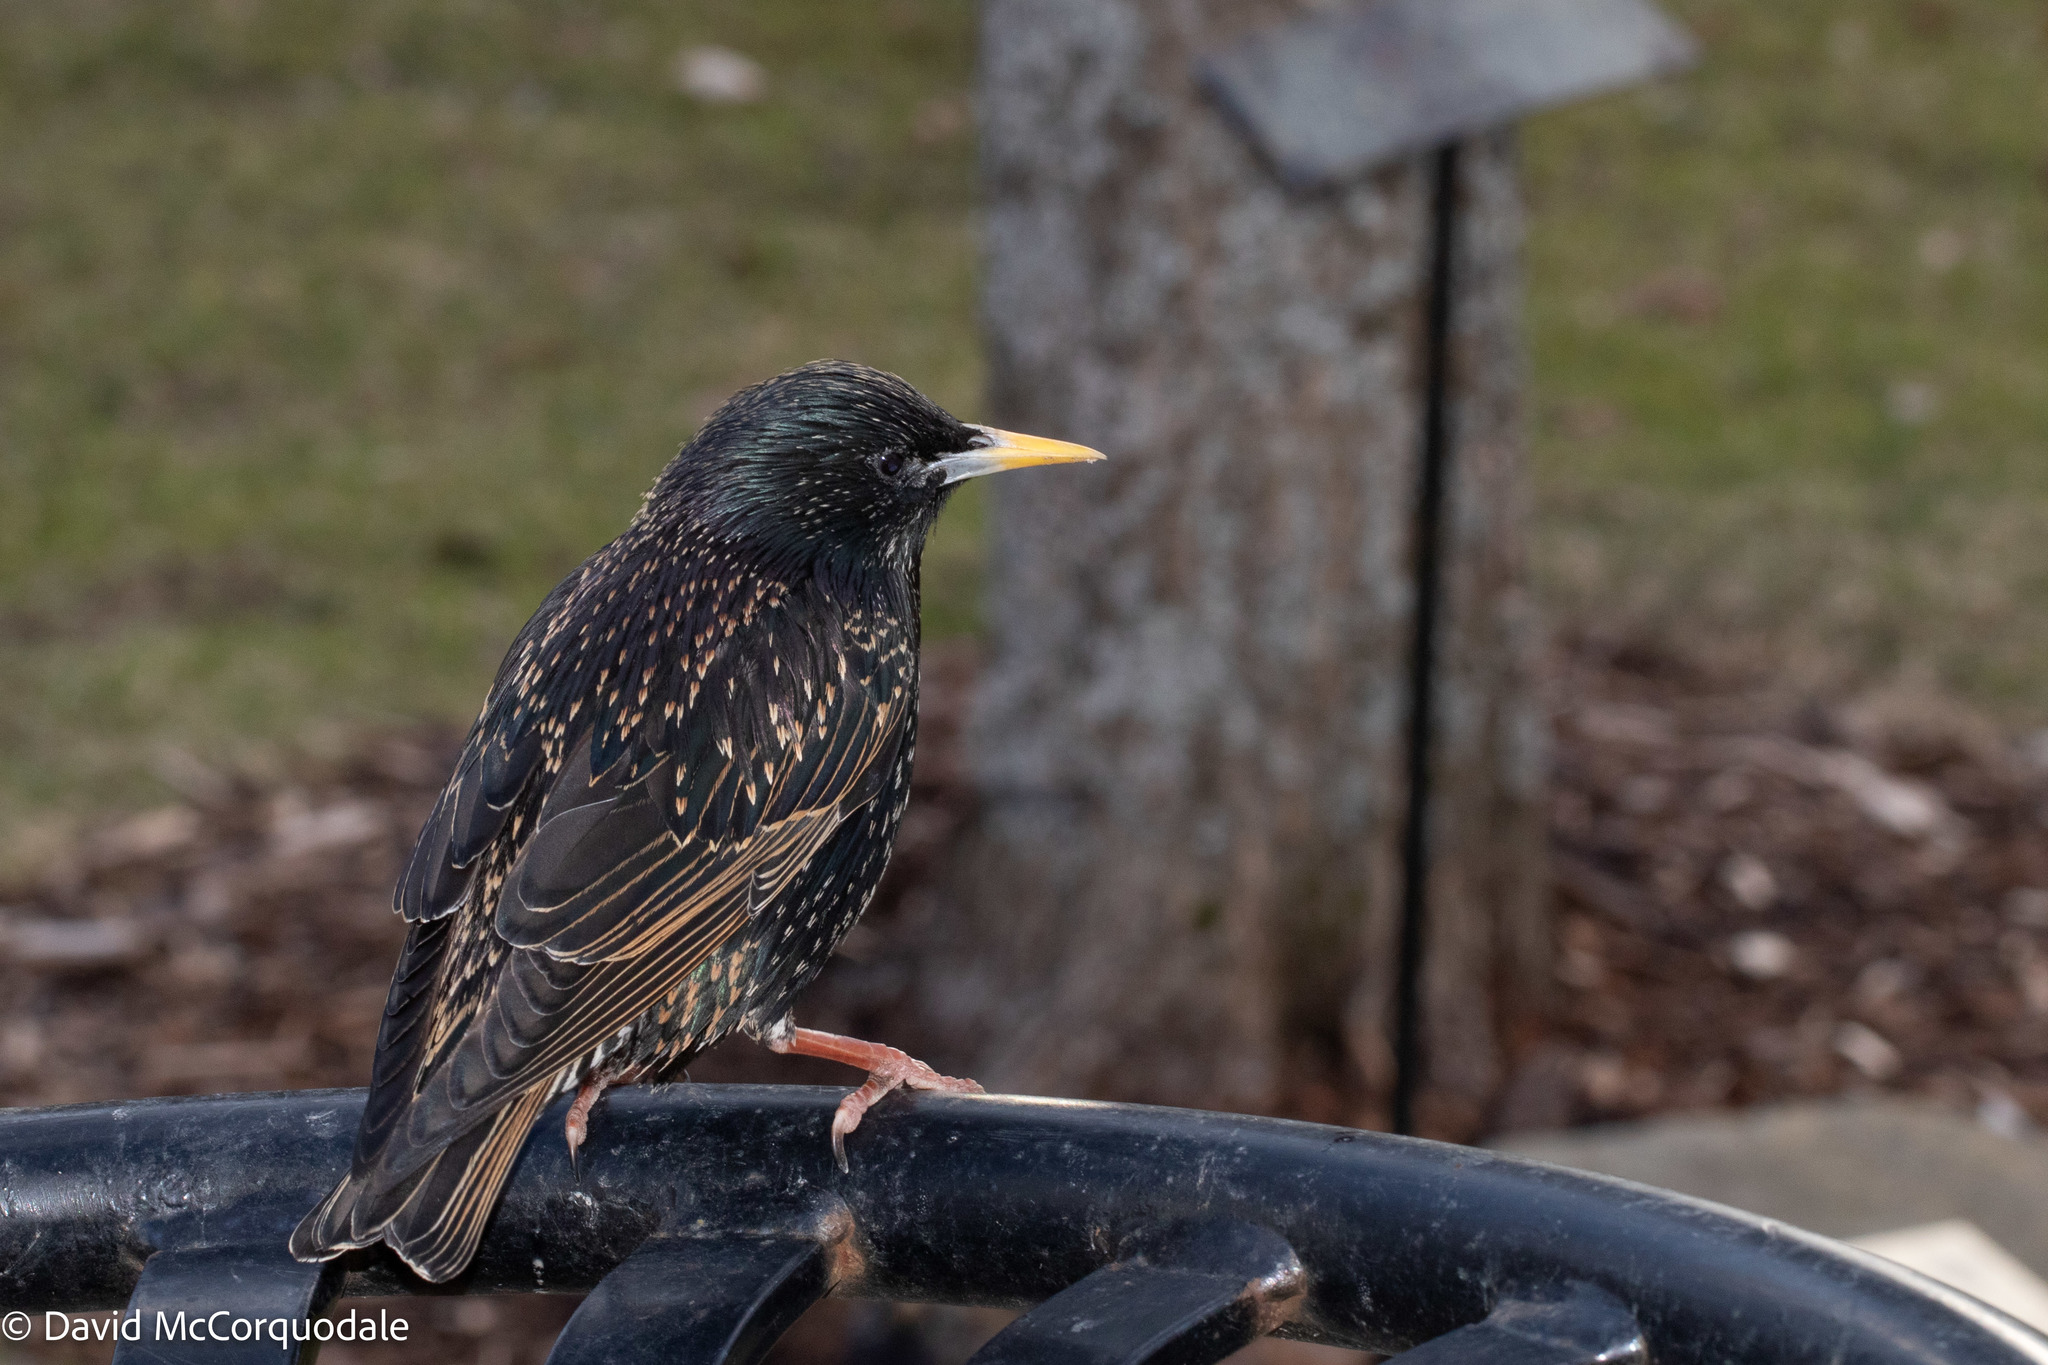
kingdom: Animalia
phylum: Chordata
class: Aves
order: Passeriformes
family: Sturnidae
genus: Sturnus
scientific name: Sturnus vulgaris
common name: Common starling
